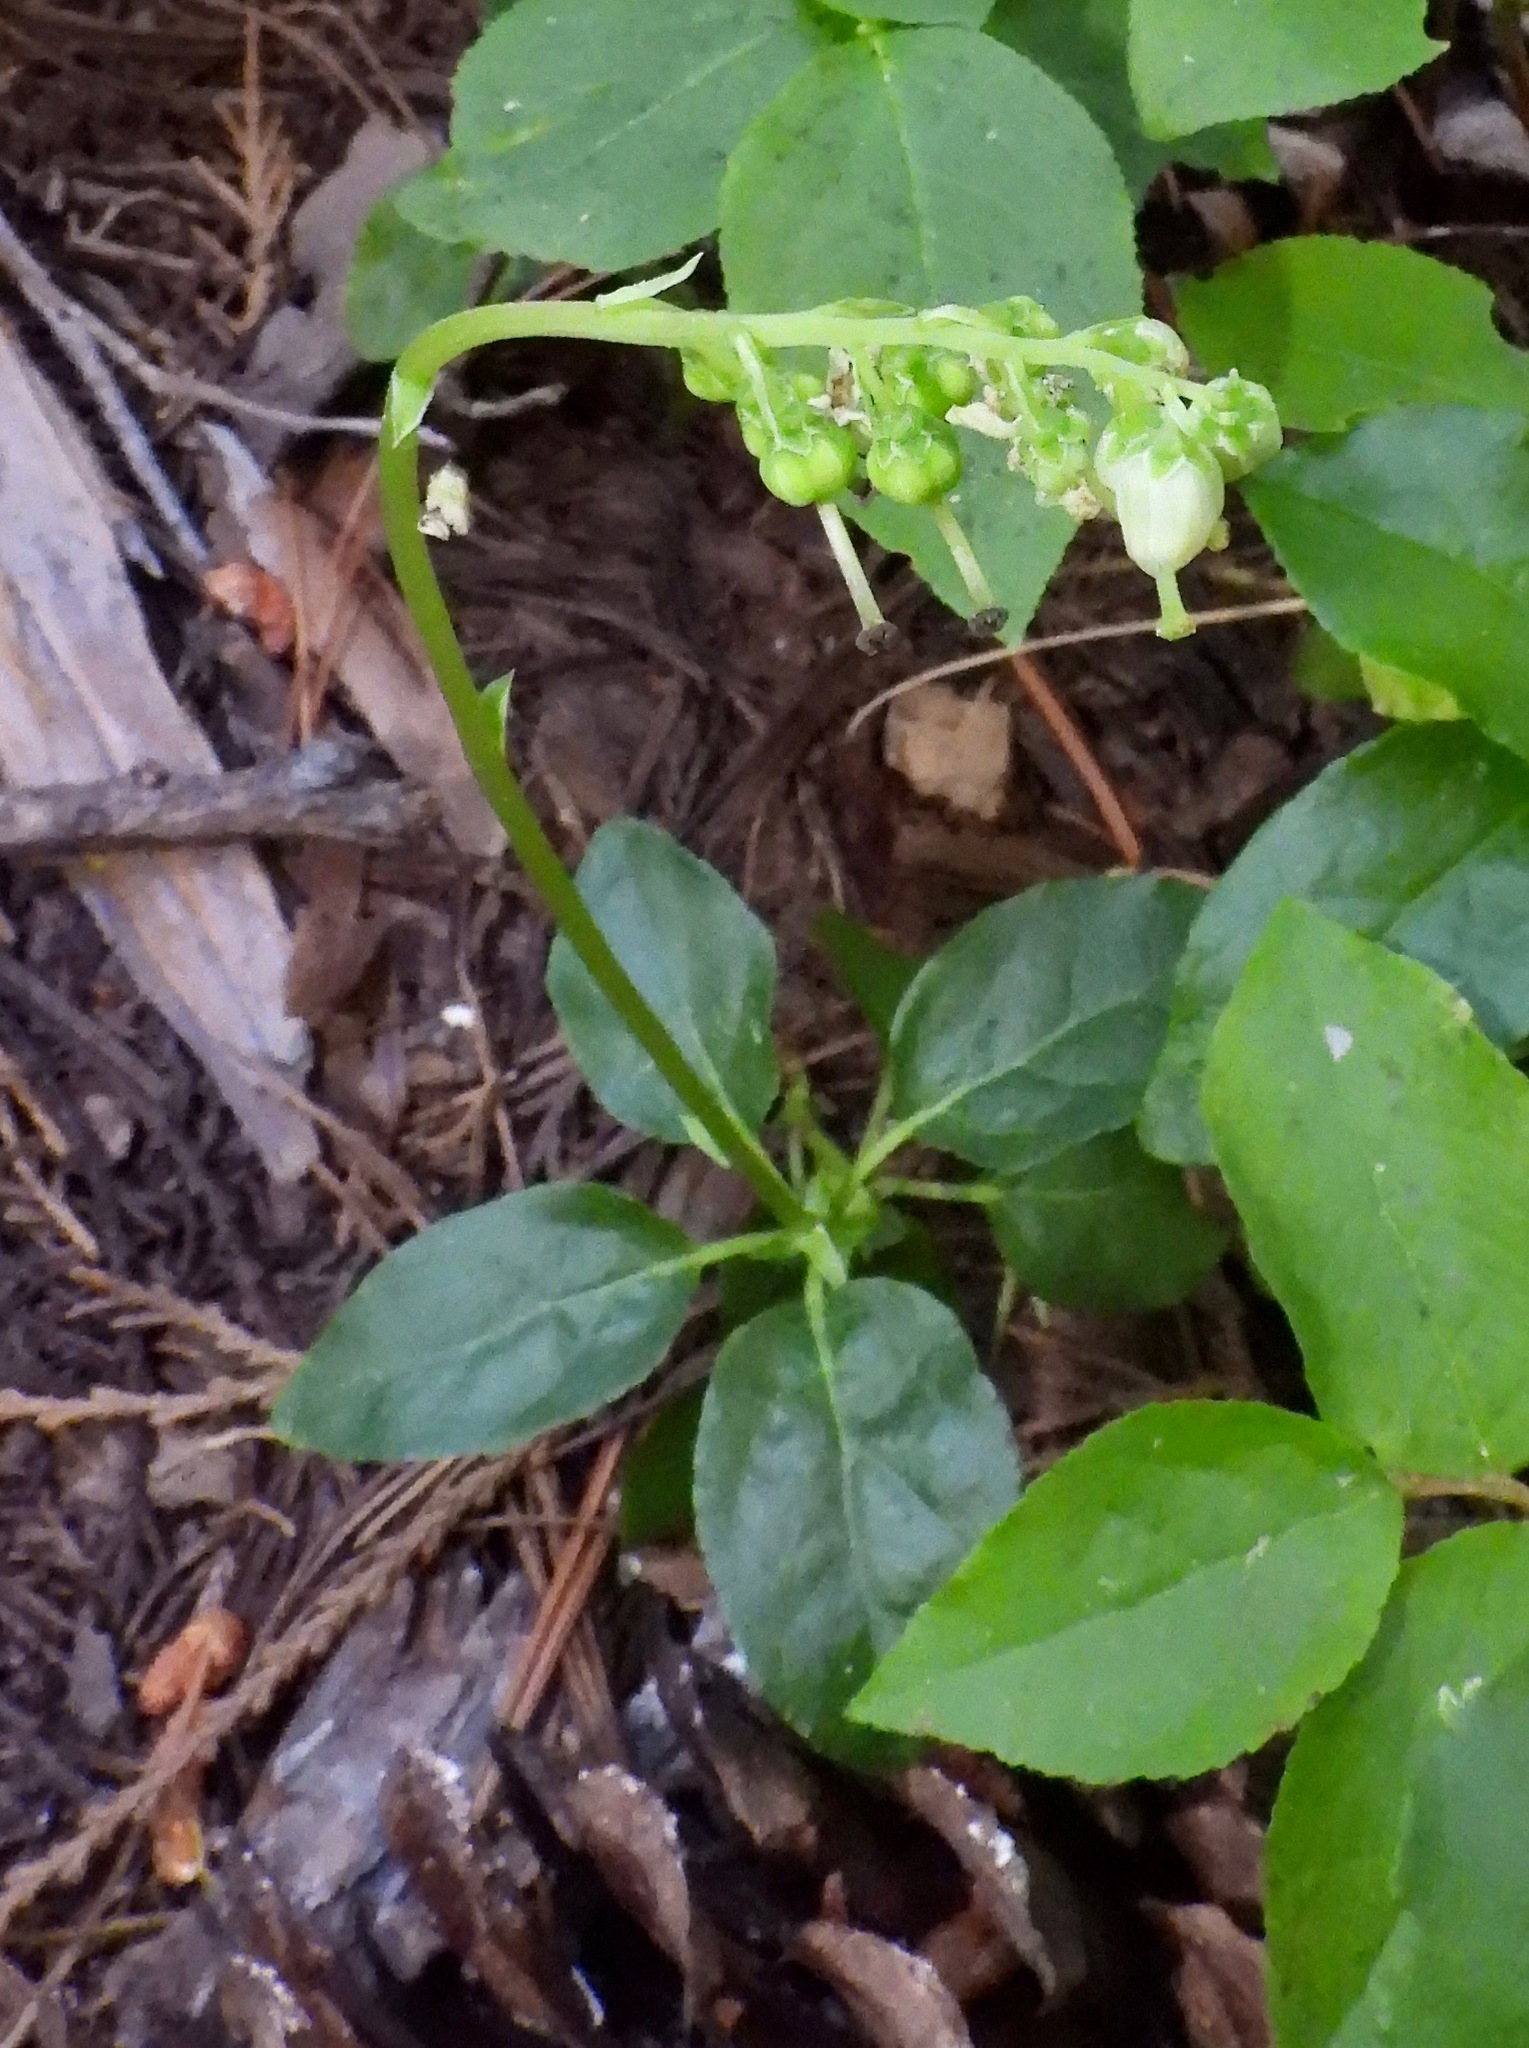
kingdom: Plantae
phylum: Tracheophyta
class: Magnoliopsida
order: Ericales
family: Ericaceae
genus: Orthilia
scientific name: Orthilia secunda
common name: One-sided orthilia
